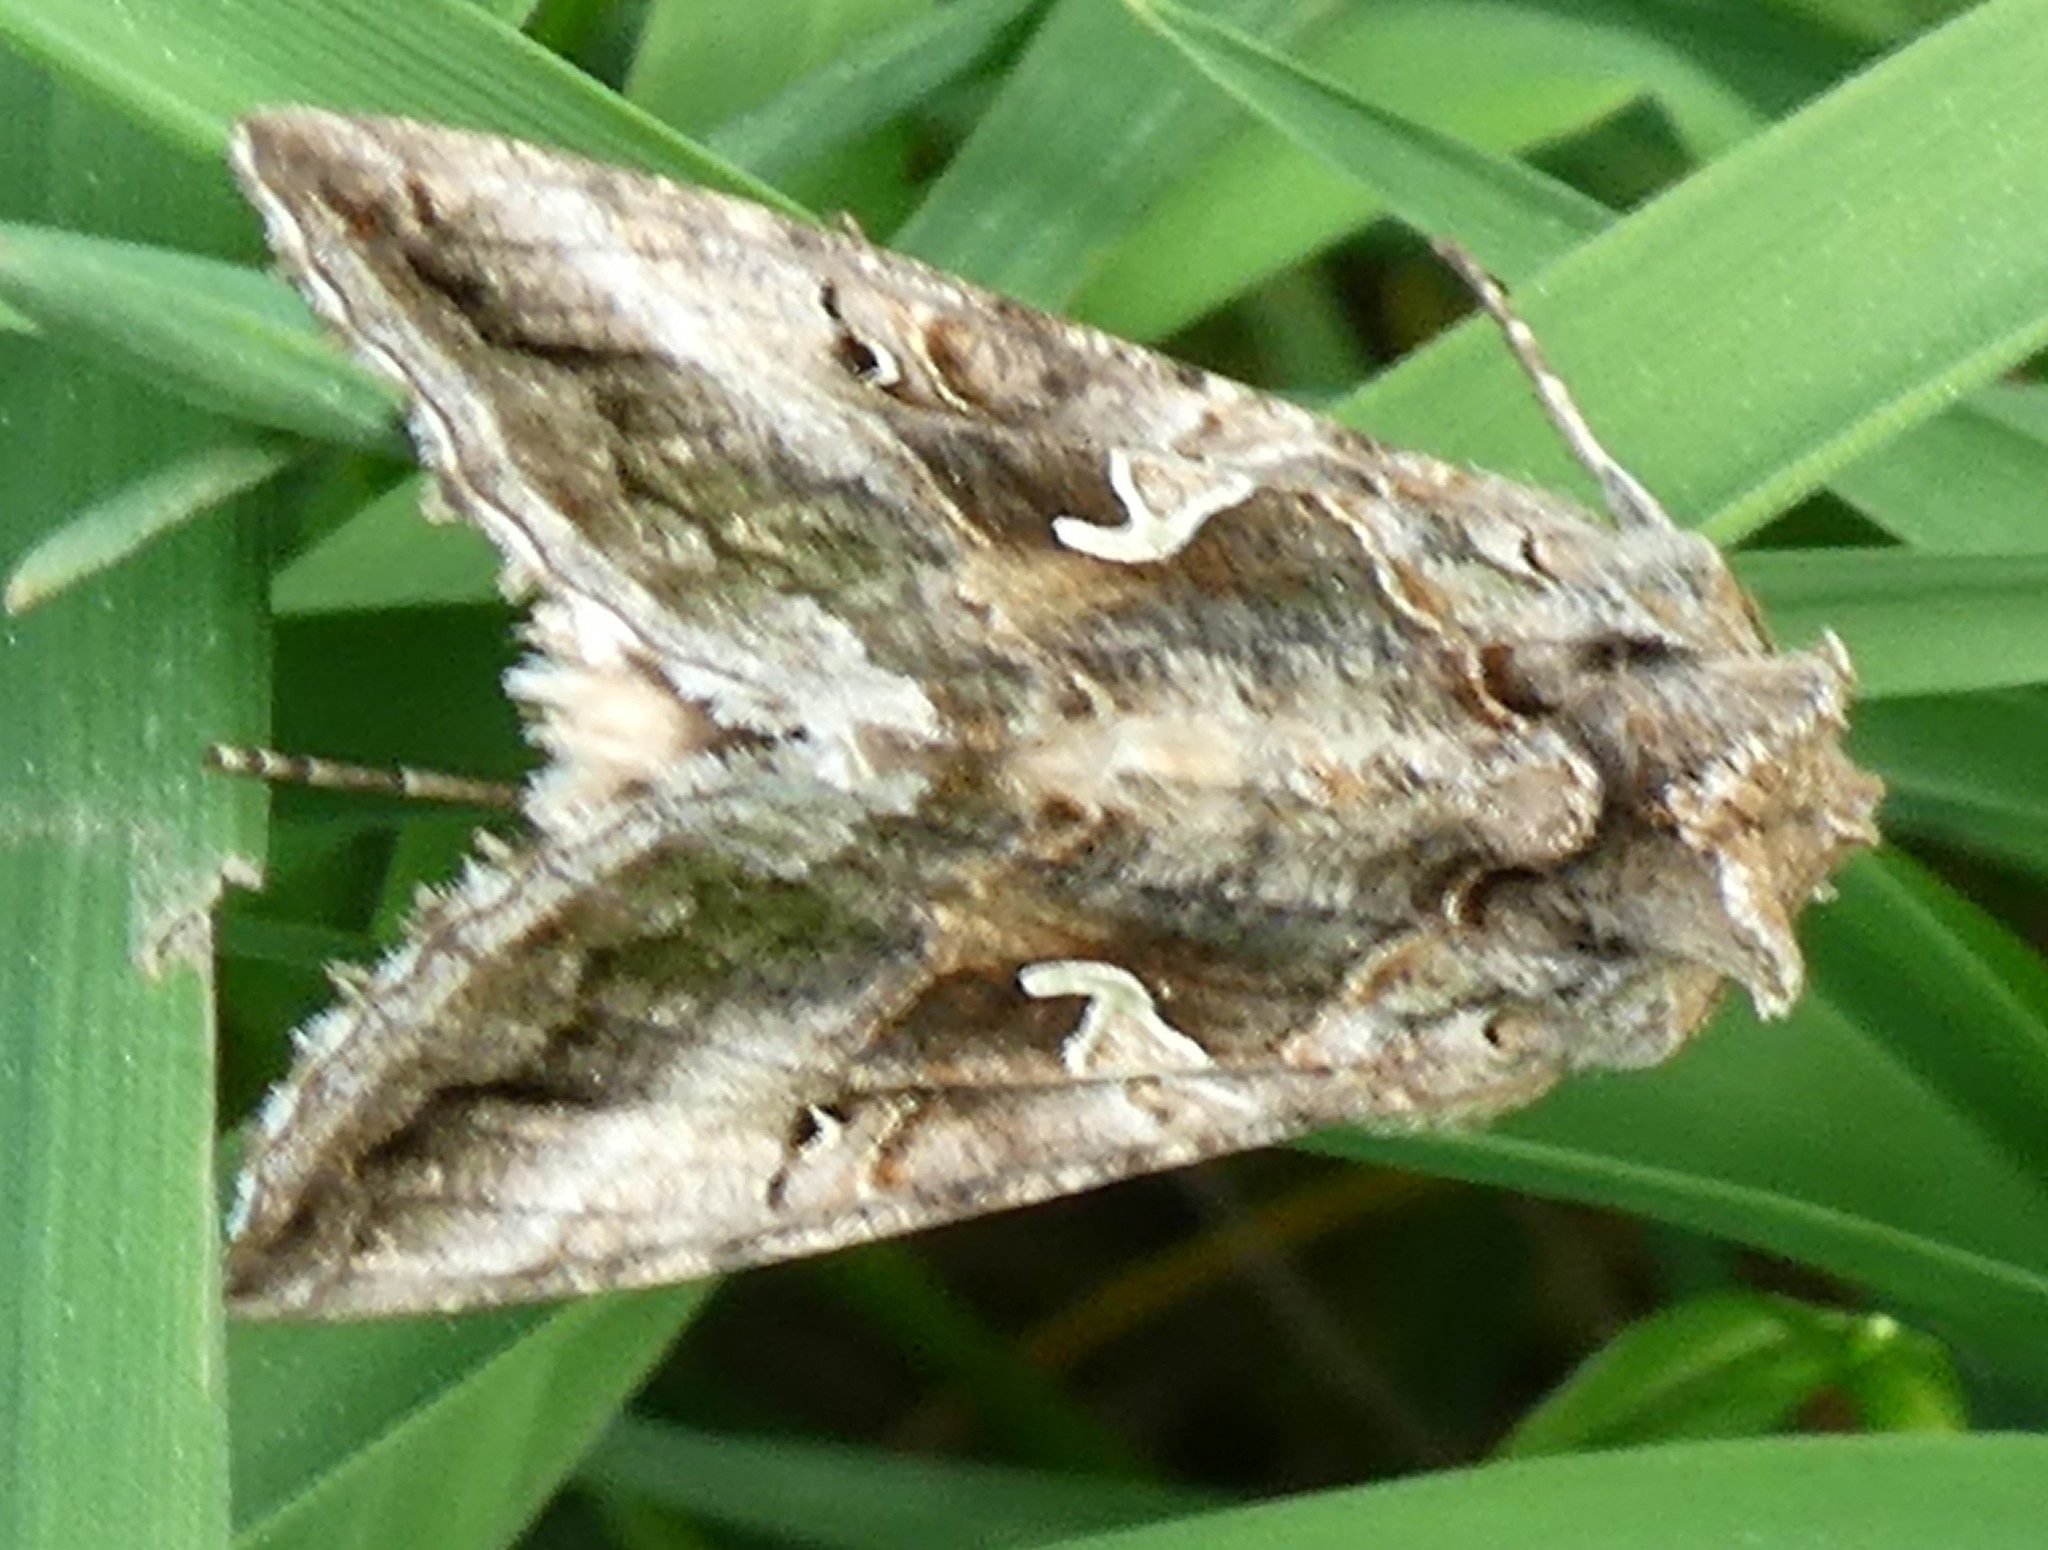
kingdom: Animalia
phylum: Arthropoda
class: Insecta
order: Lepidoptera
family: Noctuidae
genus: Autographa
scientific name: Autographa gamma
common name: Silver y
